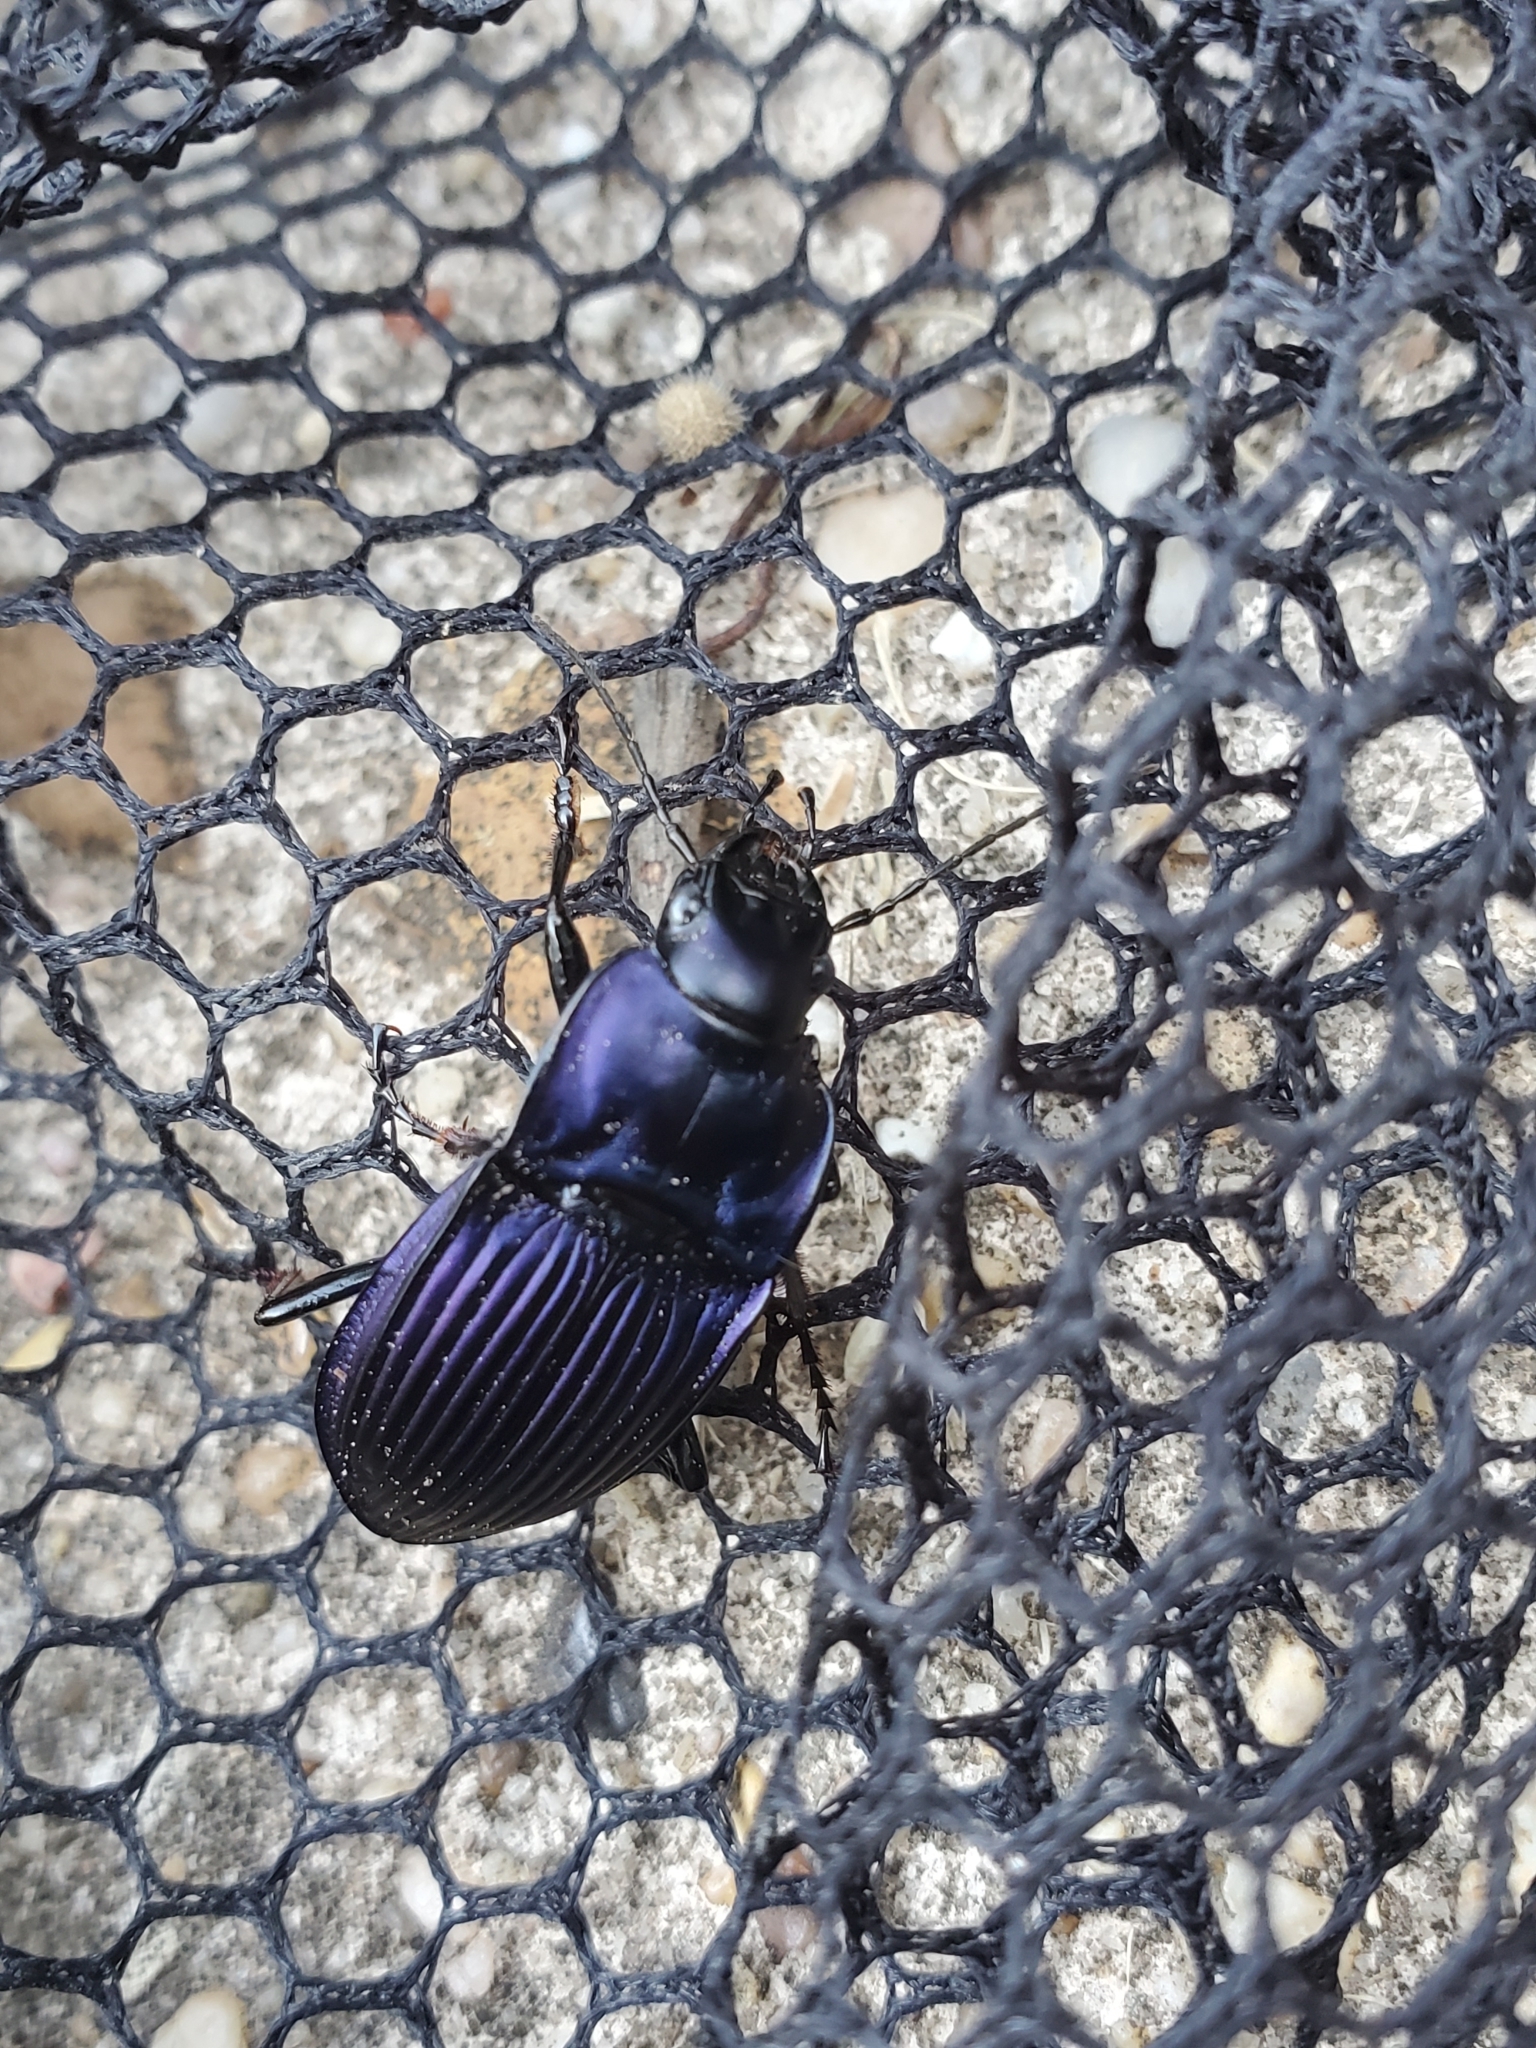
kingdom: Animalia
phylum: Arthropoda
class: Insecta
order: Coleoptera
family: Carabidae
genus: Dicaelus
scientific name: Dicaelus purpuratus
